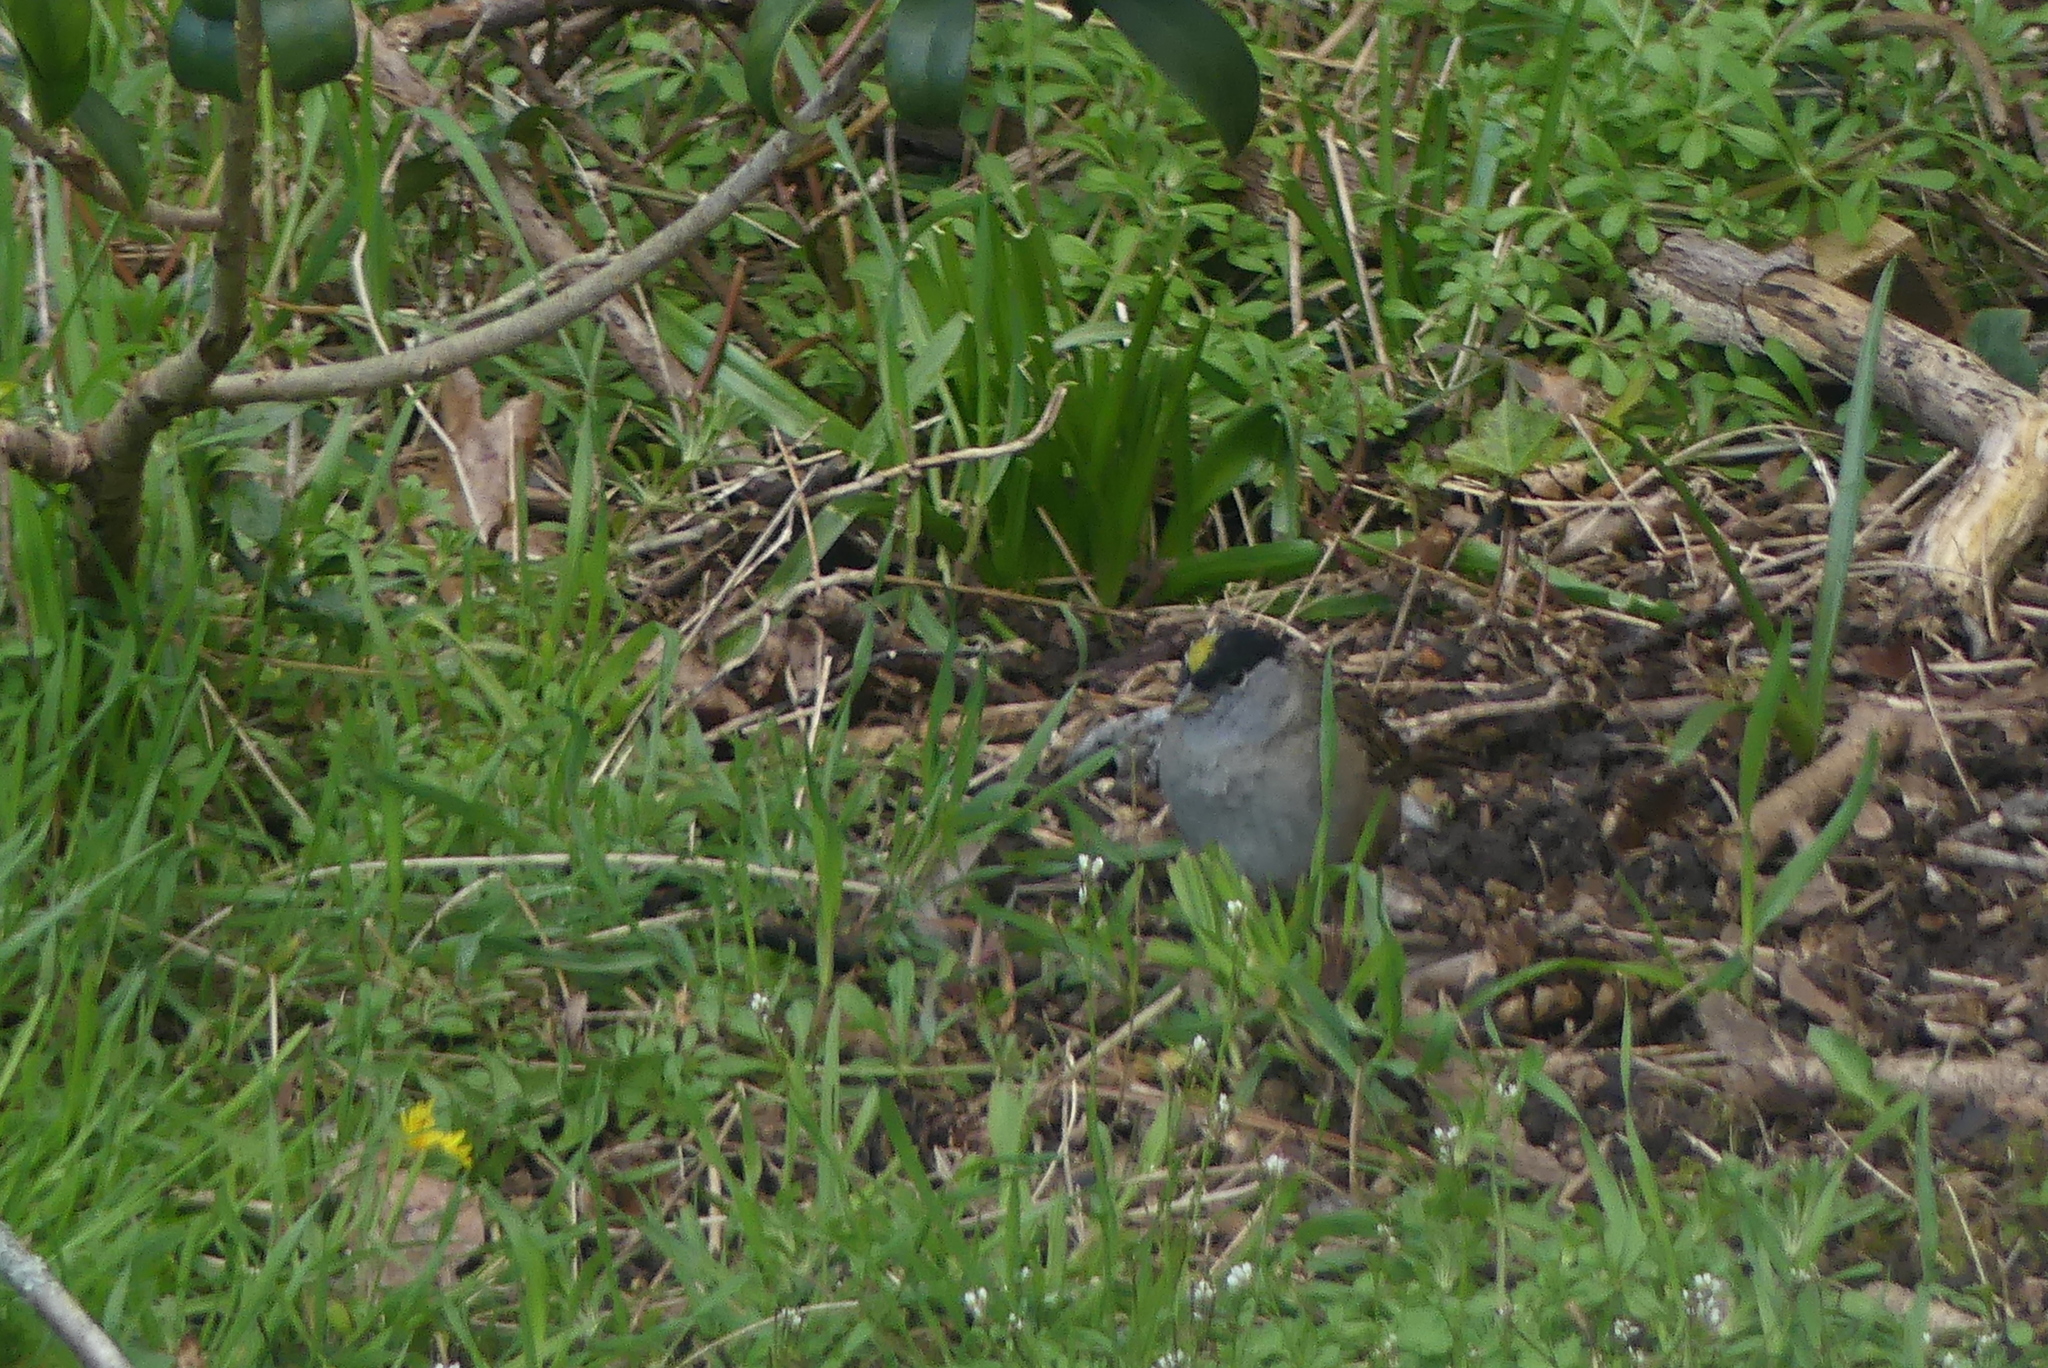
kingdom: Animalia
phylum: Chordata
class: Aves
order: Passeriformes
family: Passerellidae
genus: Zonotrichia
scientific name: Zonotrichia atricapilla
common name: Golden-crowned sparrow
